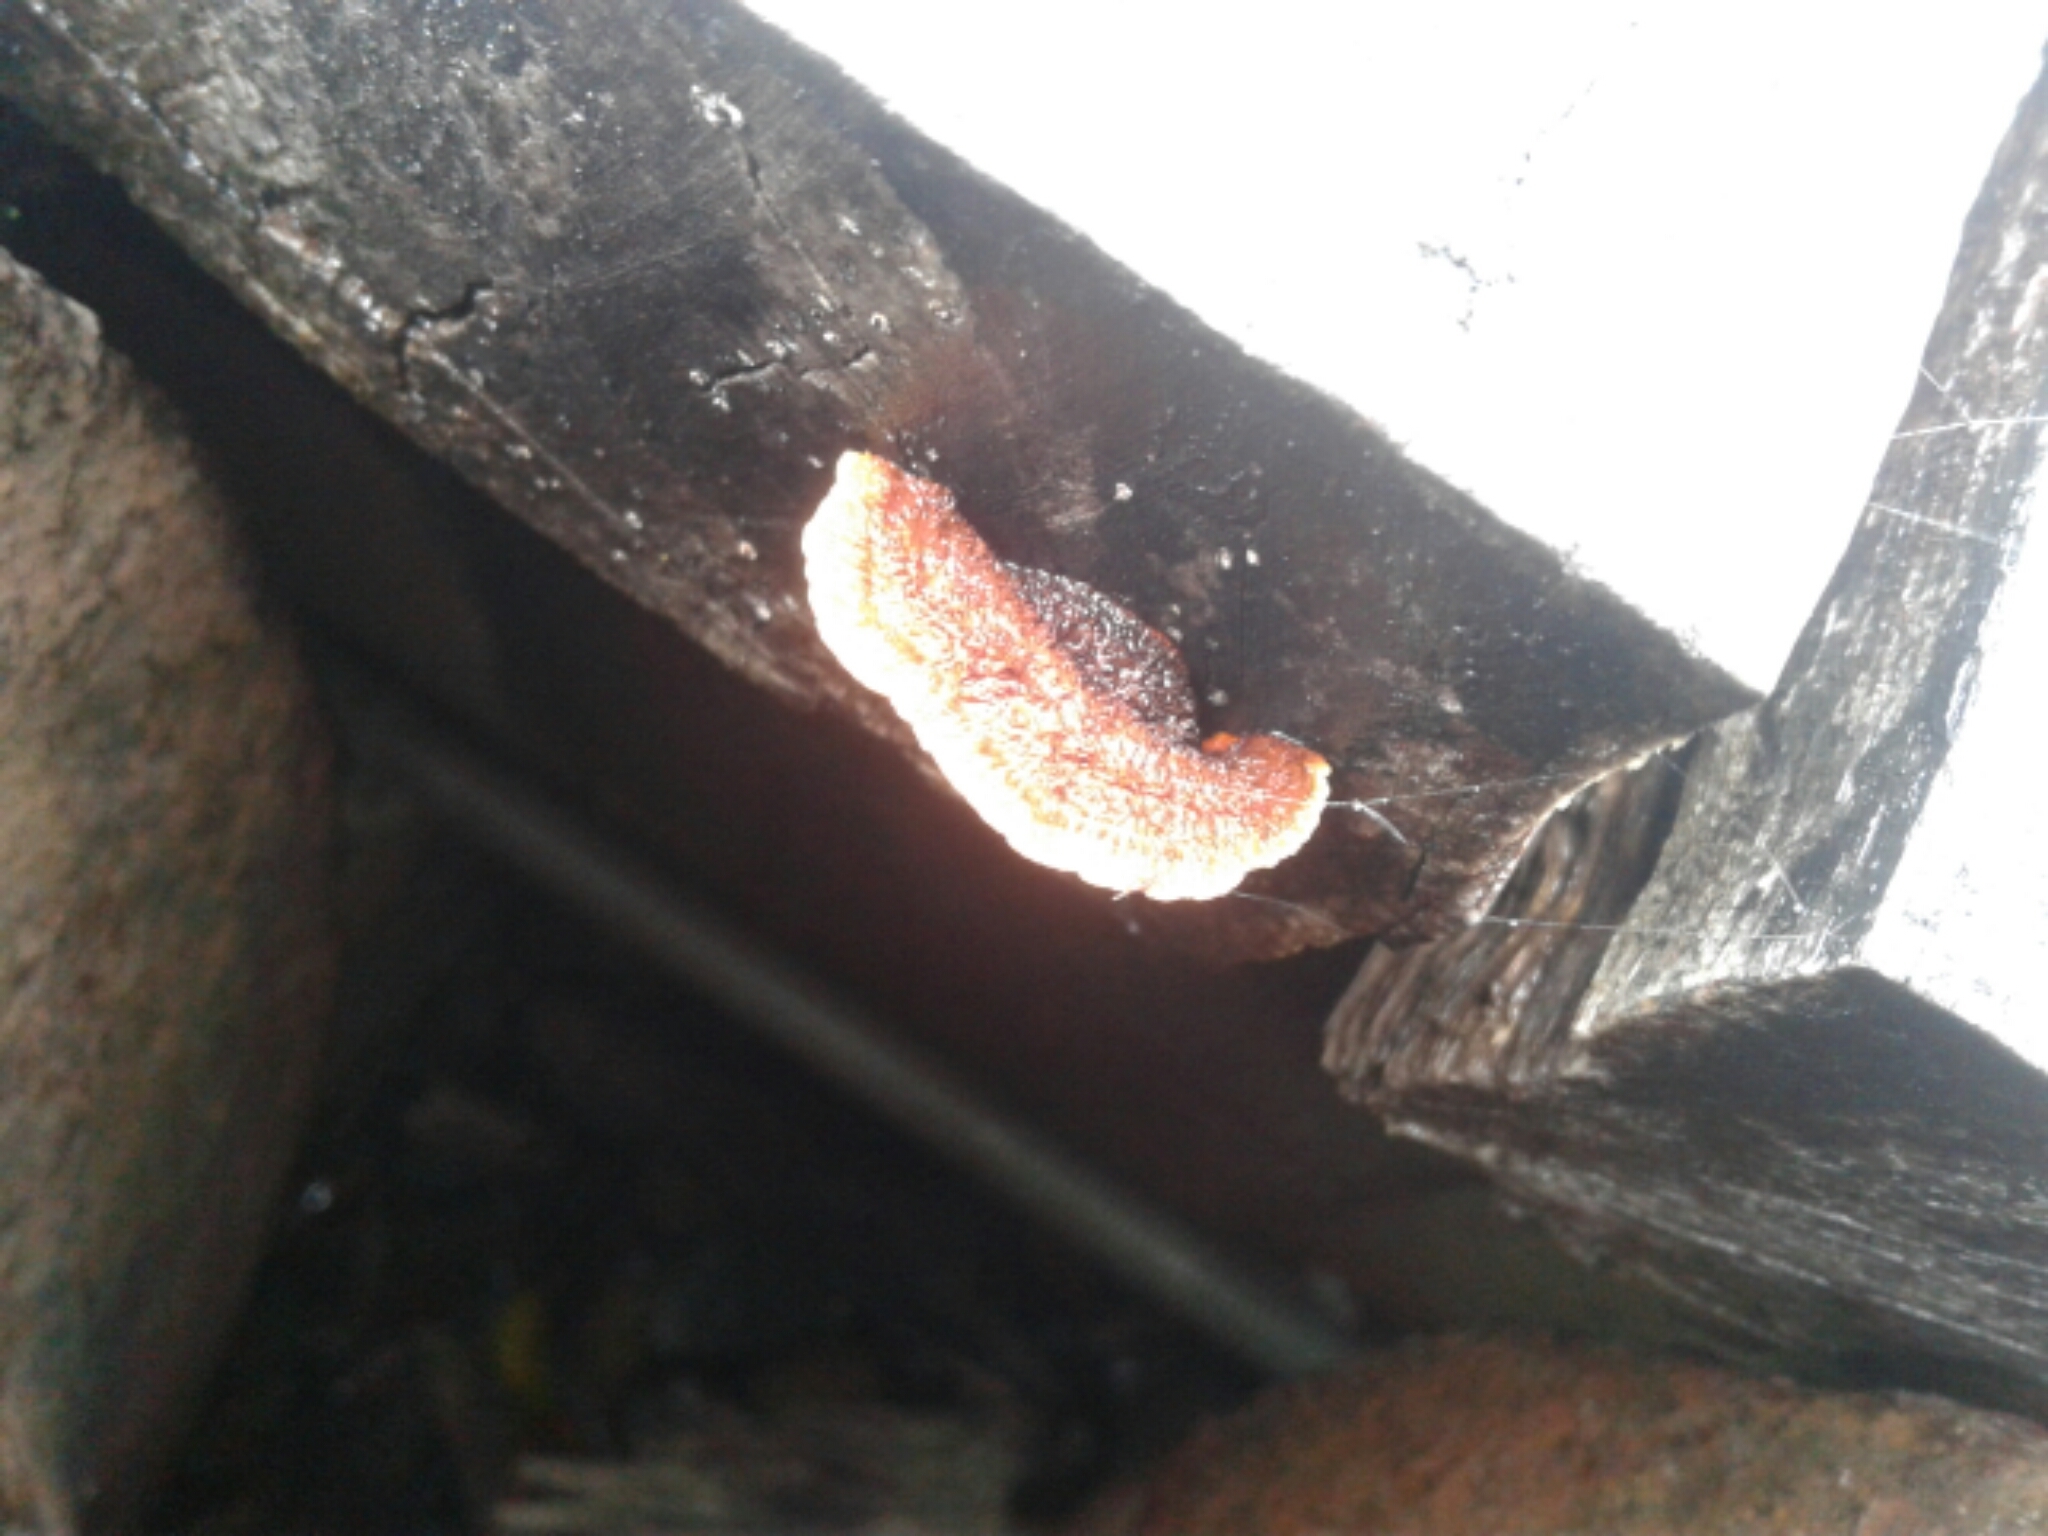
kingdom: Fungi
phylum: Basidiomycota
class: Agaricomycetes
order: Polyporales
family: Polyporaceae
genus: Trametes
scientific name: Trametes coccinea
